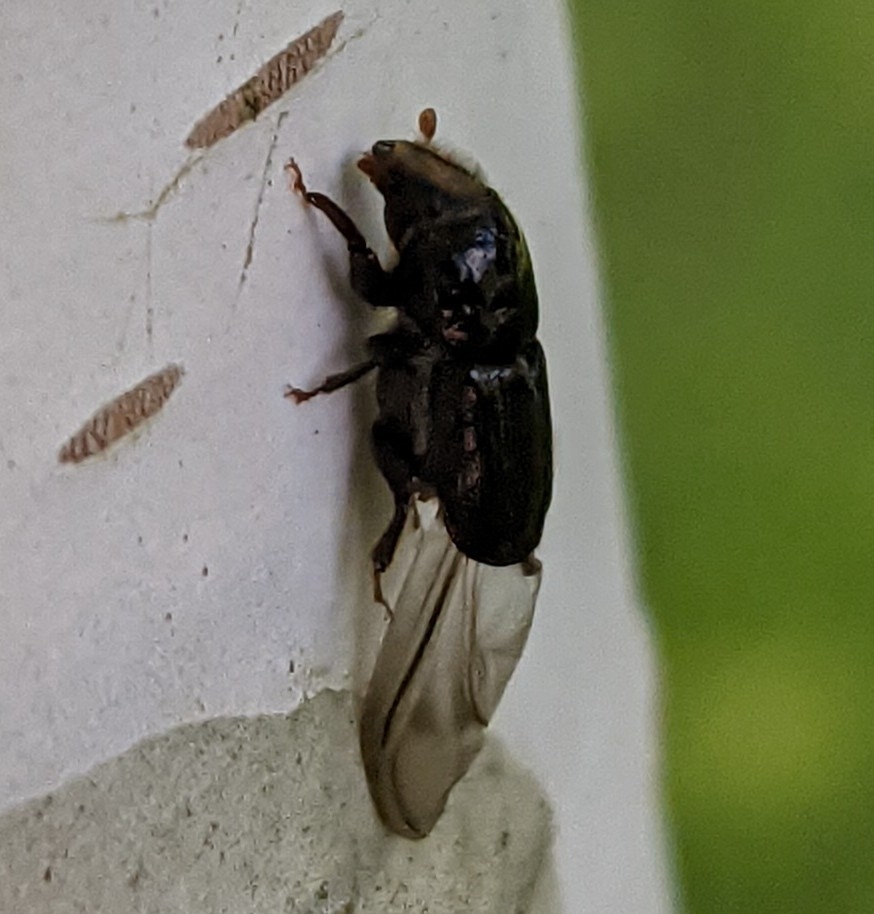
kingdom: Animalia
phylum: Arthropoda
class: Insecta
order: Coleoptera
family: Curculionidae
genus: Scolytus
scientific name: Scolytus ratzeburgii
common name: Birch bark beetle
